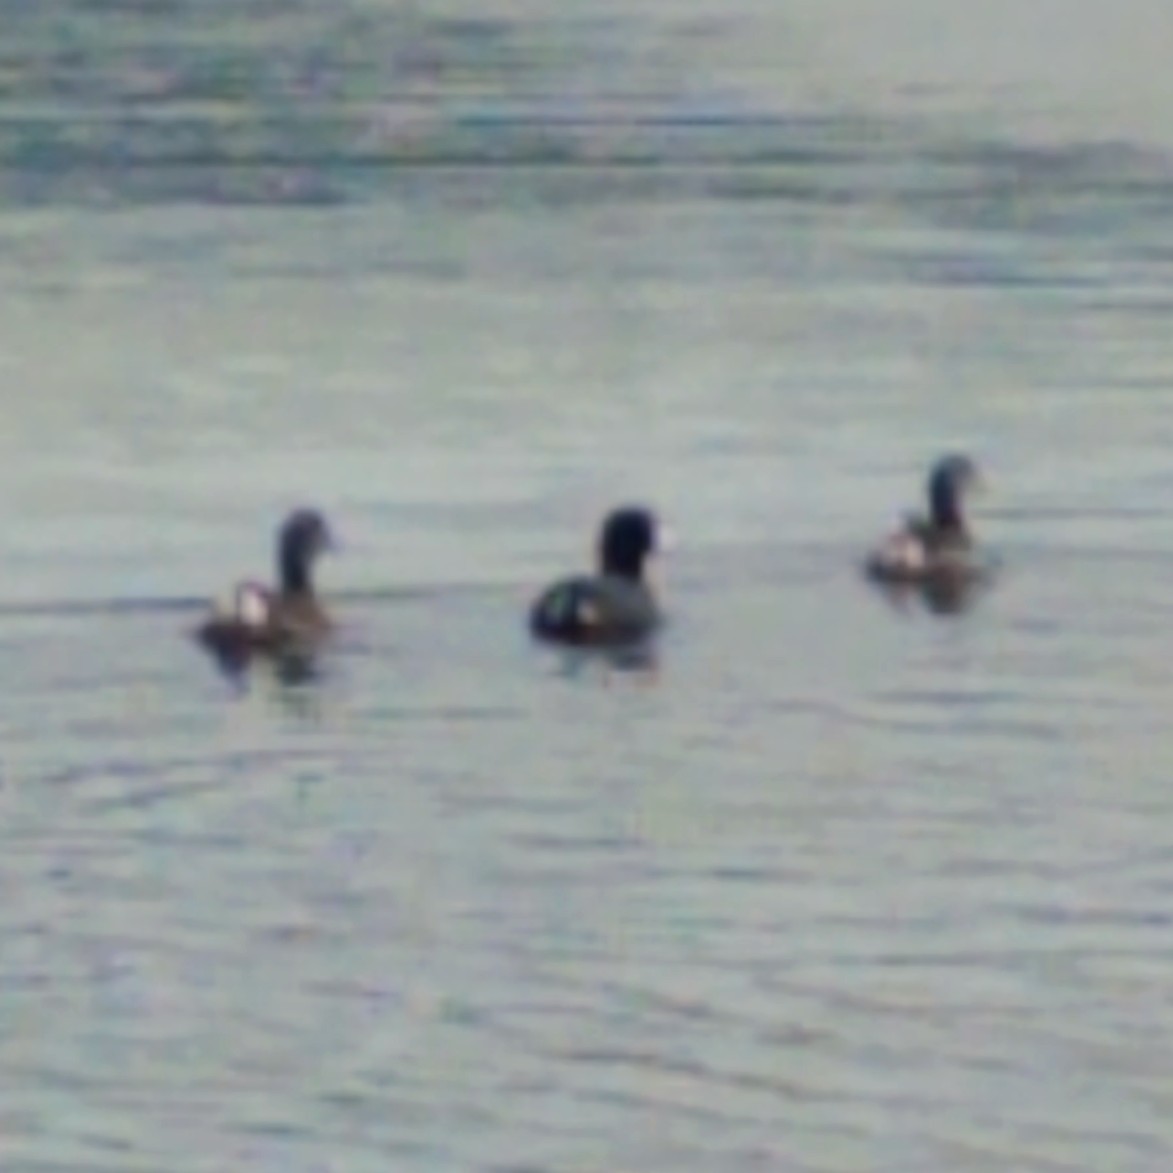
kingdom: Animalia
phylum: Chordata
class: Aves
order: Gruiformes
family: Rallidae
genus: Fulica
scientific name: Fulica americana
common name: American coot
